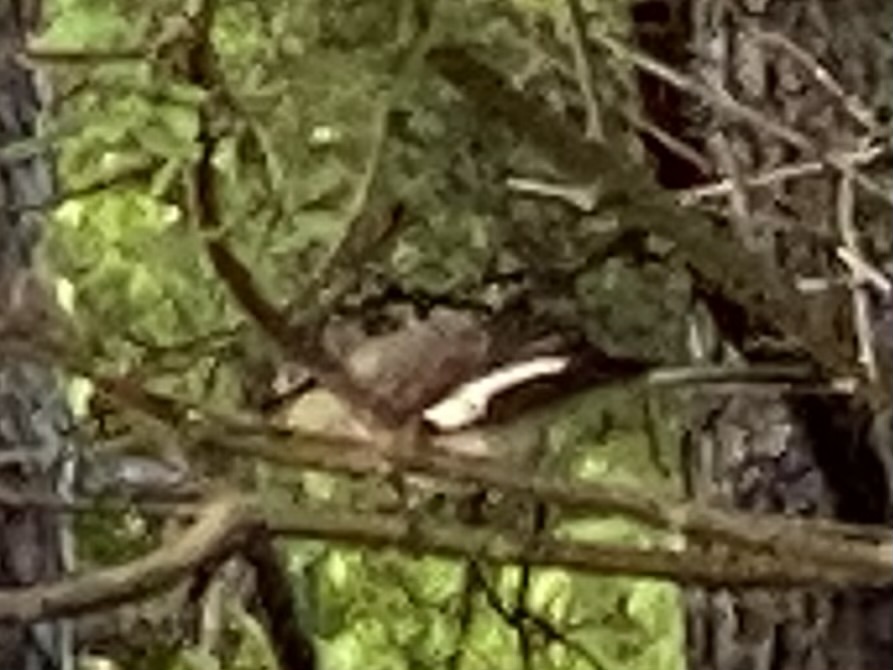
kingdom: Animalia
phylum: Chordata
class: Aves
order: Passeriformes
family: Mimidae
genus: Mimus
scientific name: Mimus polyglottos
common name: Northern mockingbird
